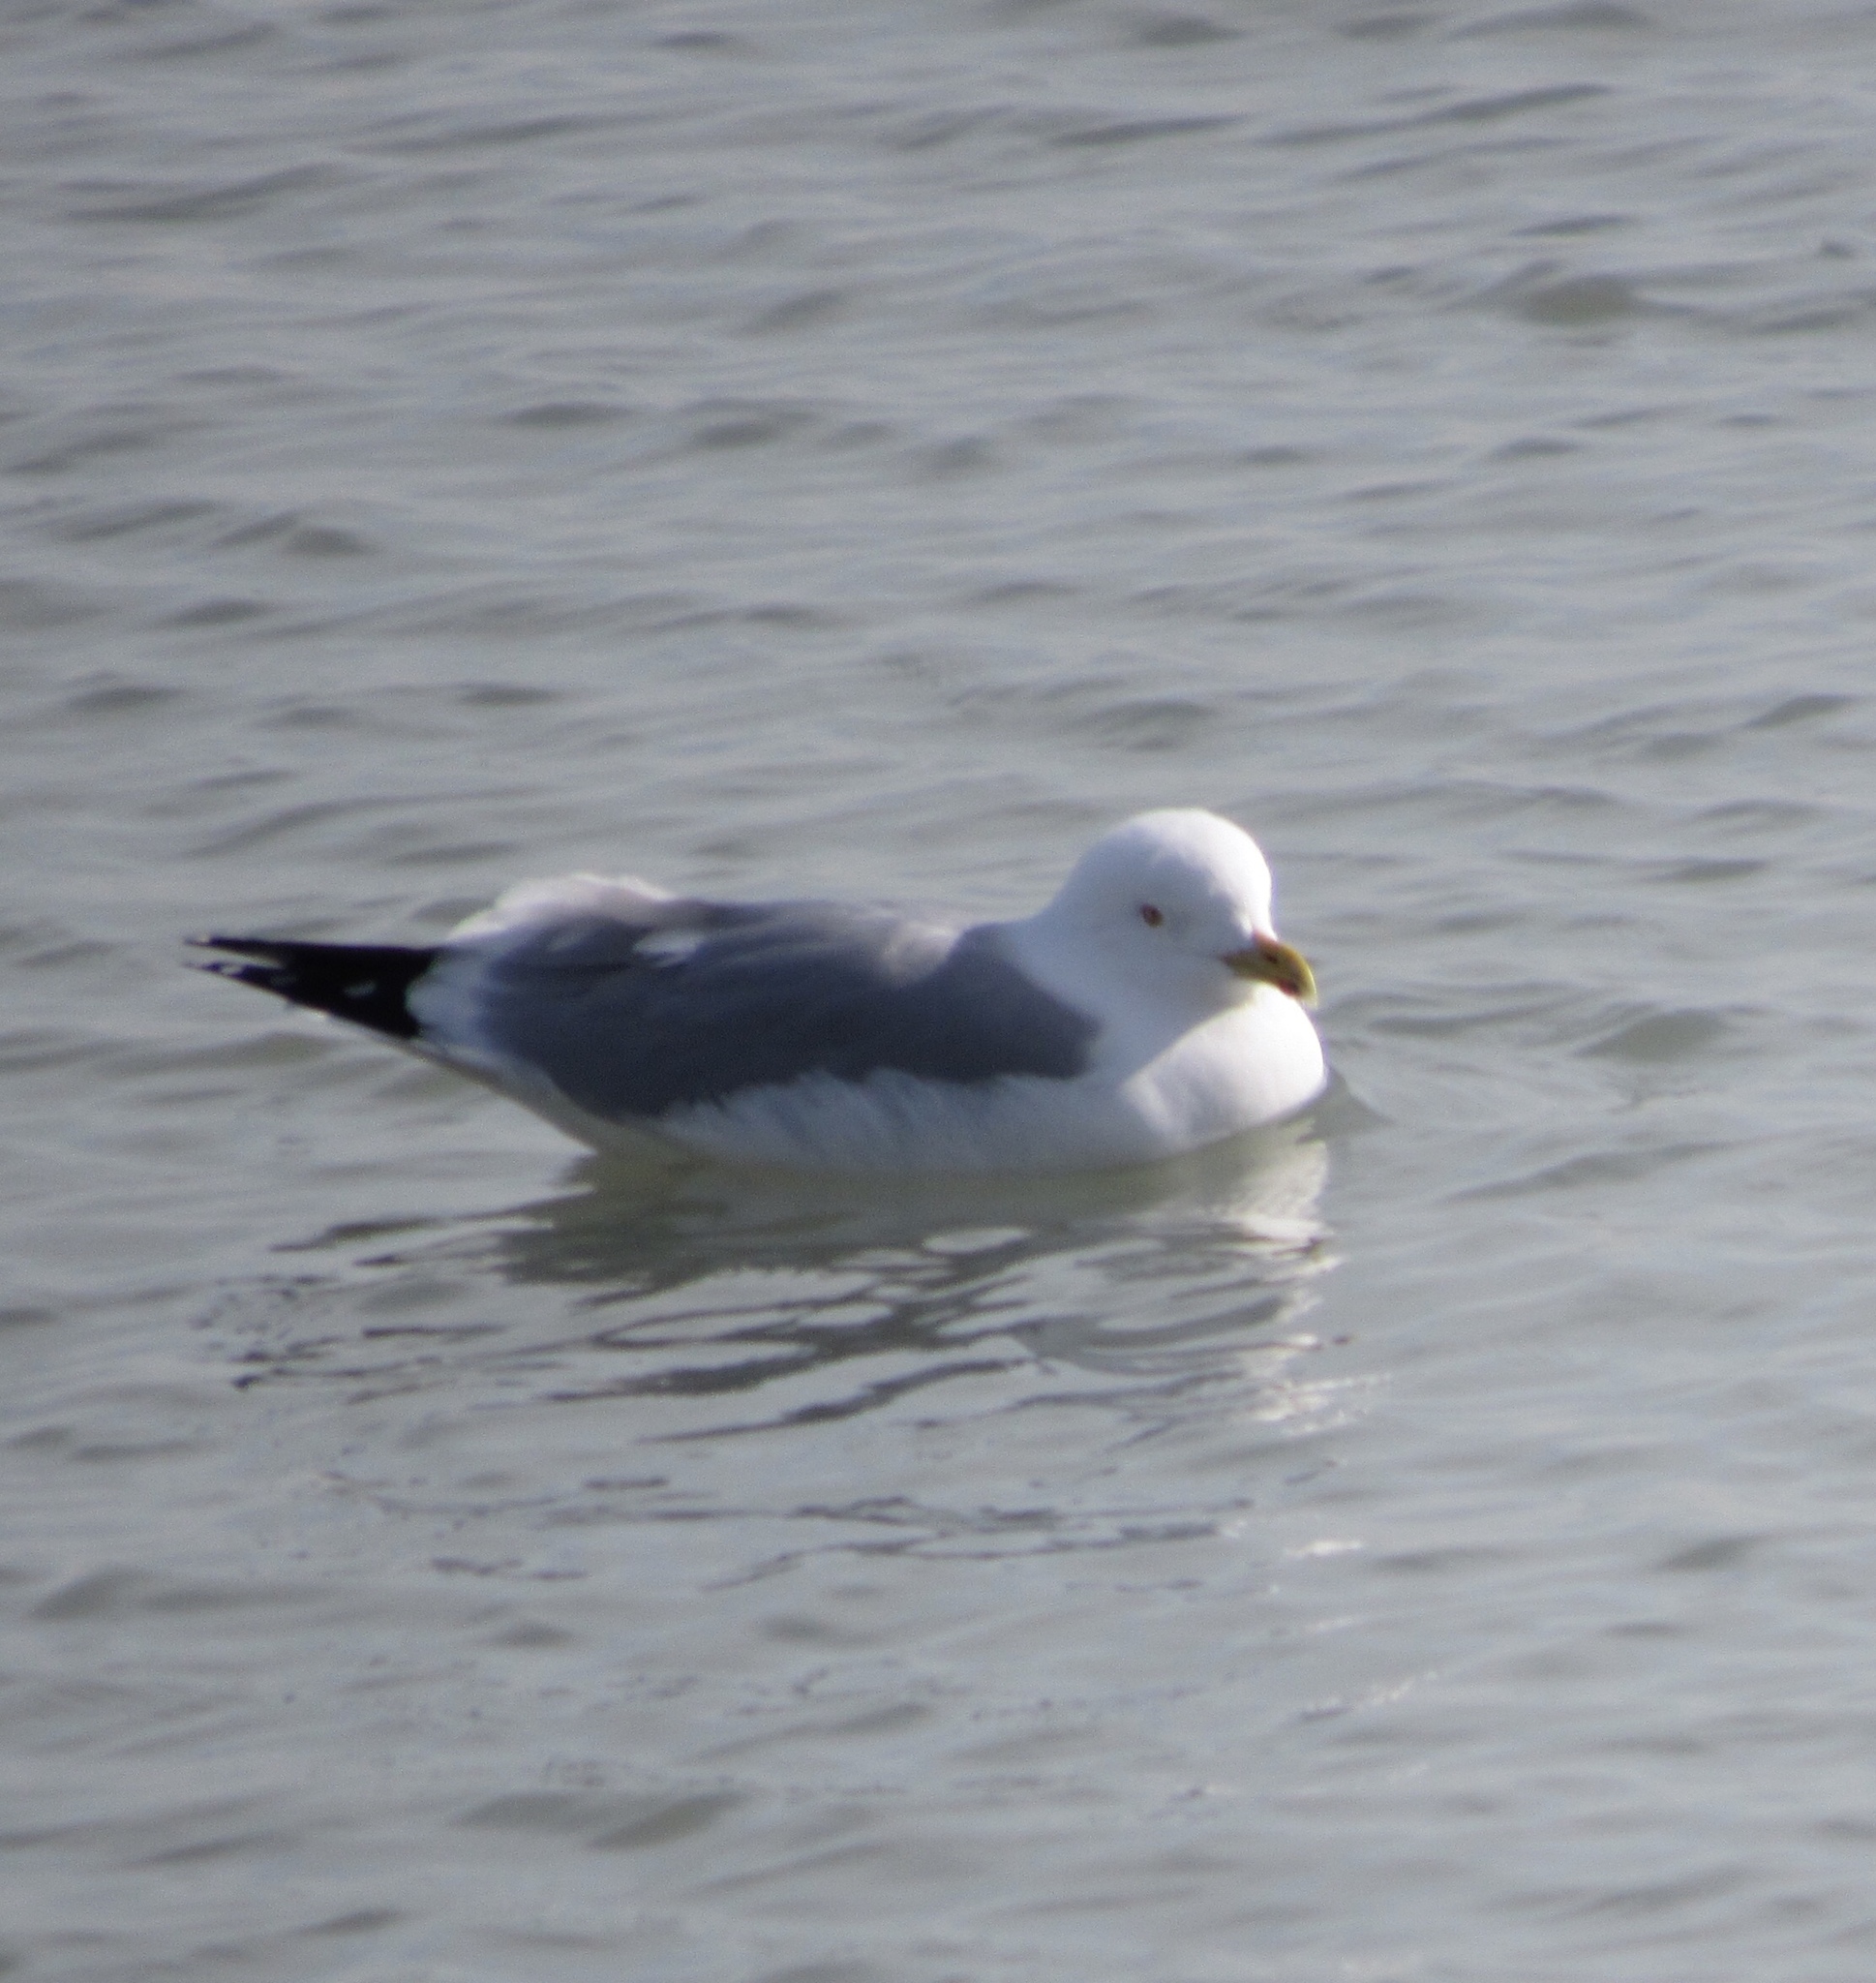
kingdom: Animalia
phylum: Chordata
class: Aves
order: Charadriiformes
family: Laridae
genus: Larus
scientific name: Larus argentatus
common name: Herring gull
